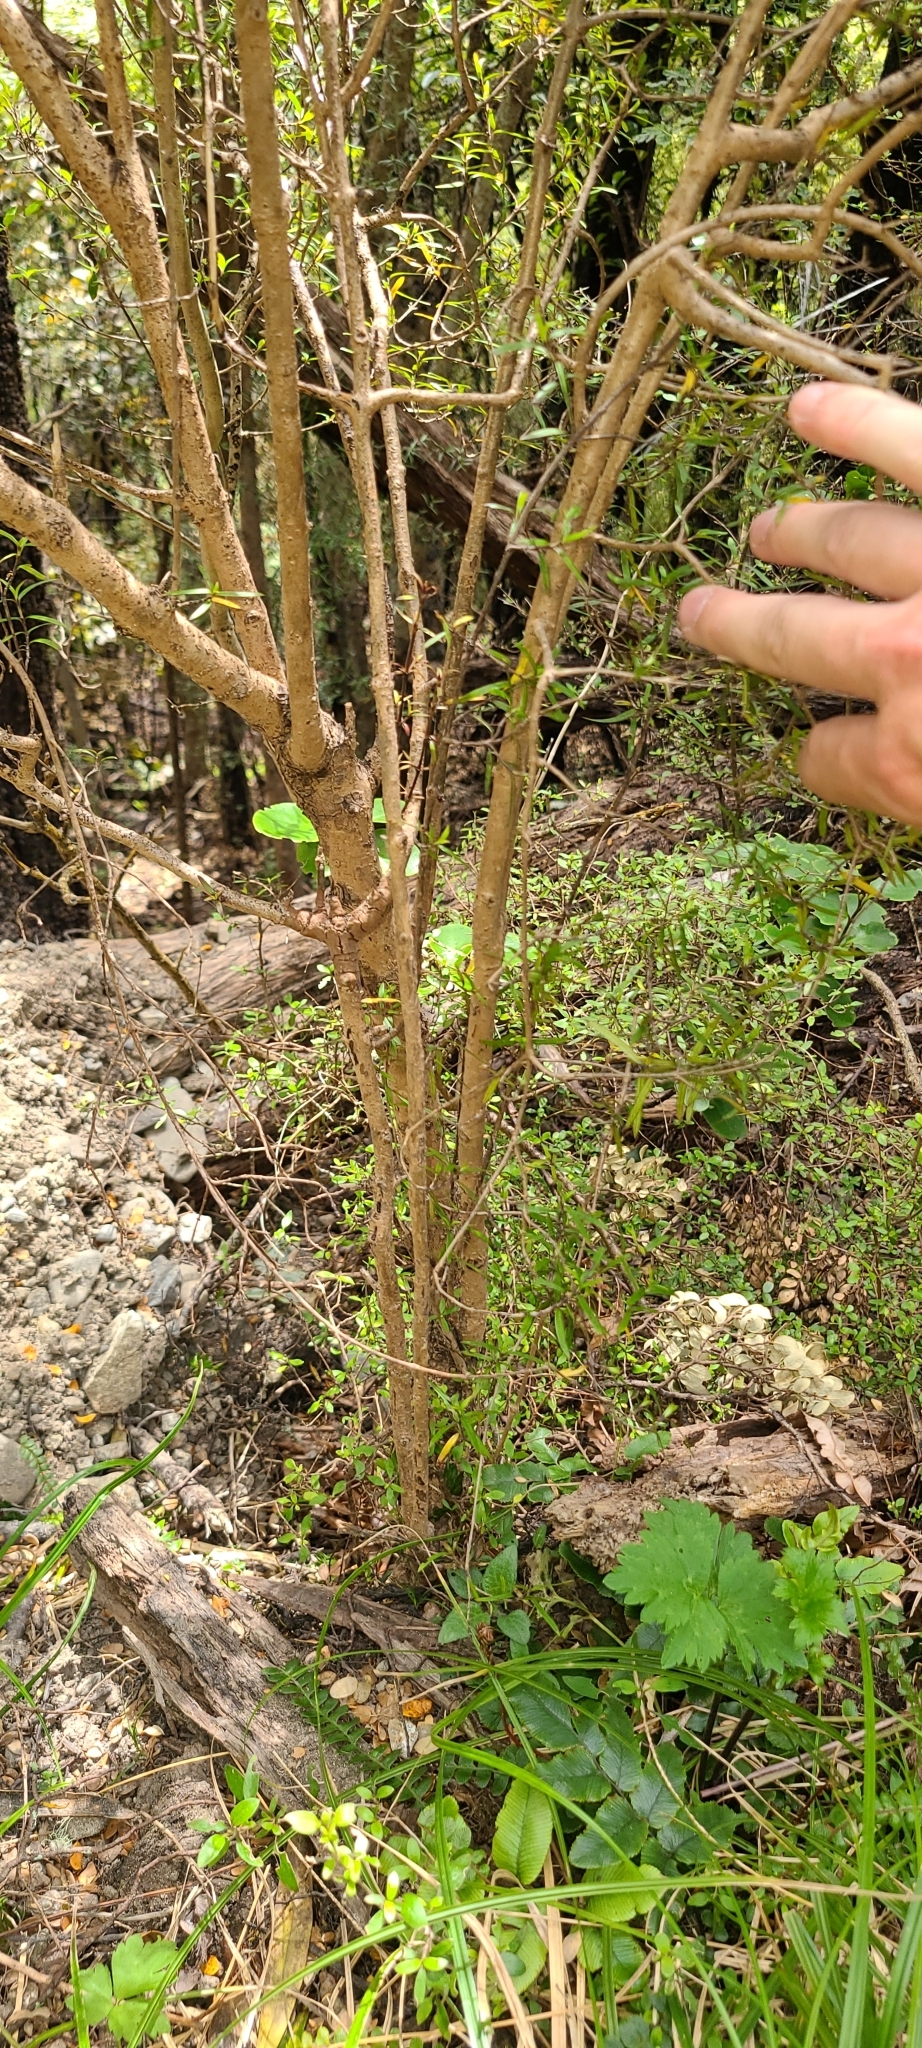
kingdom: Plantae
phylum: Tracheophyta
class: Magnoliopsida
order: Gentianales
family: Rubiaceae
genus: Coprosma
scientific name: Coprosma linariifolia
